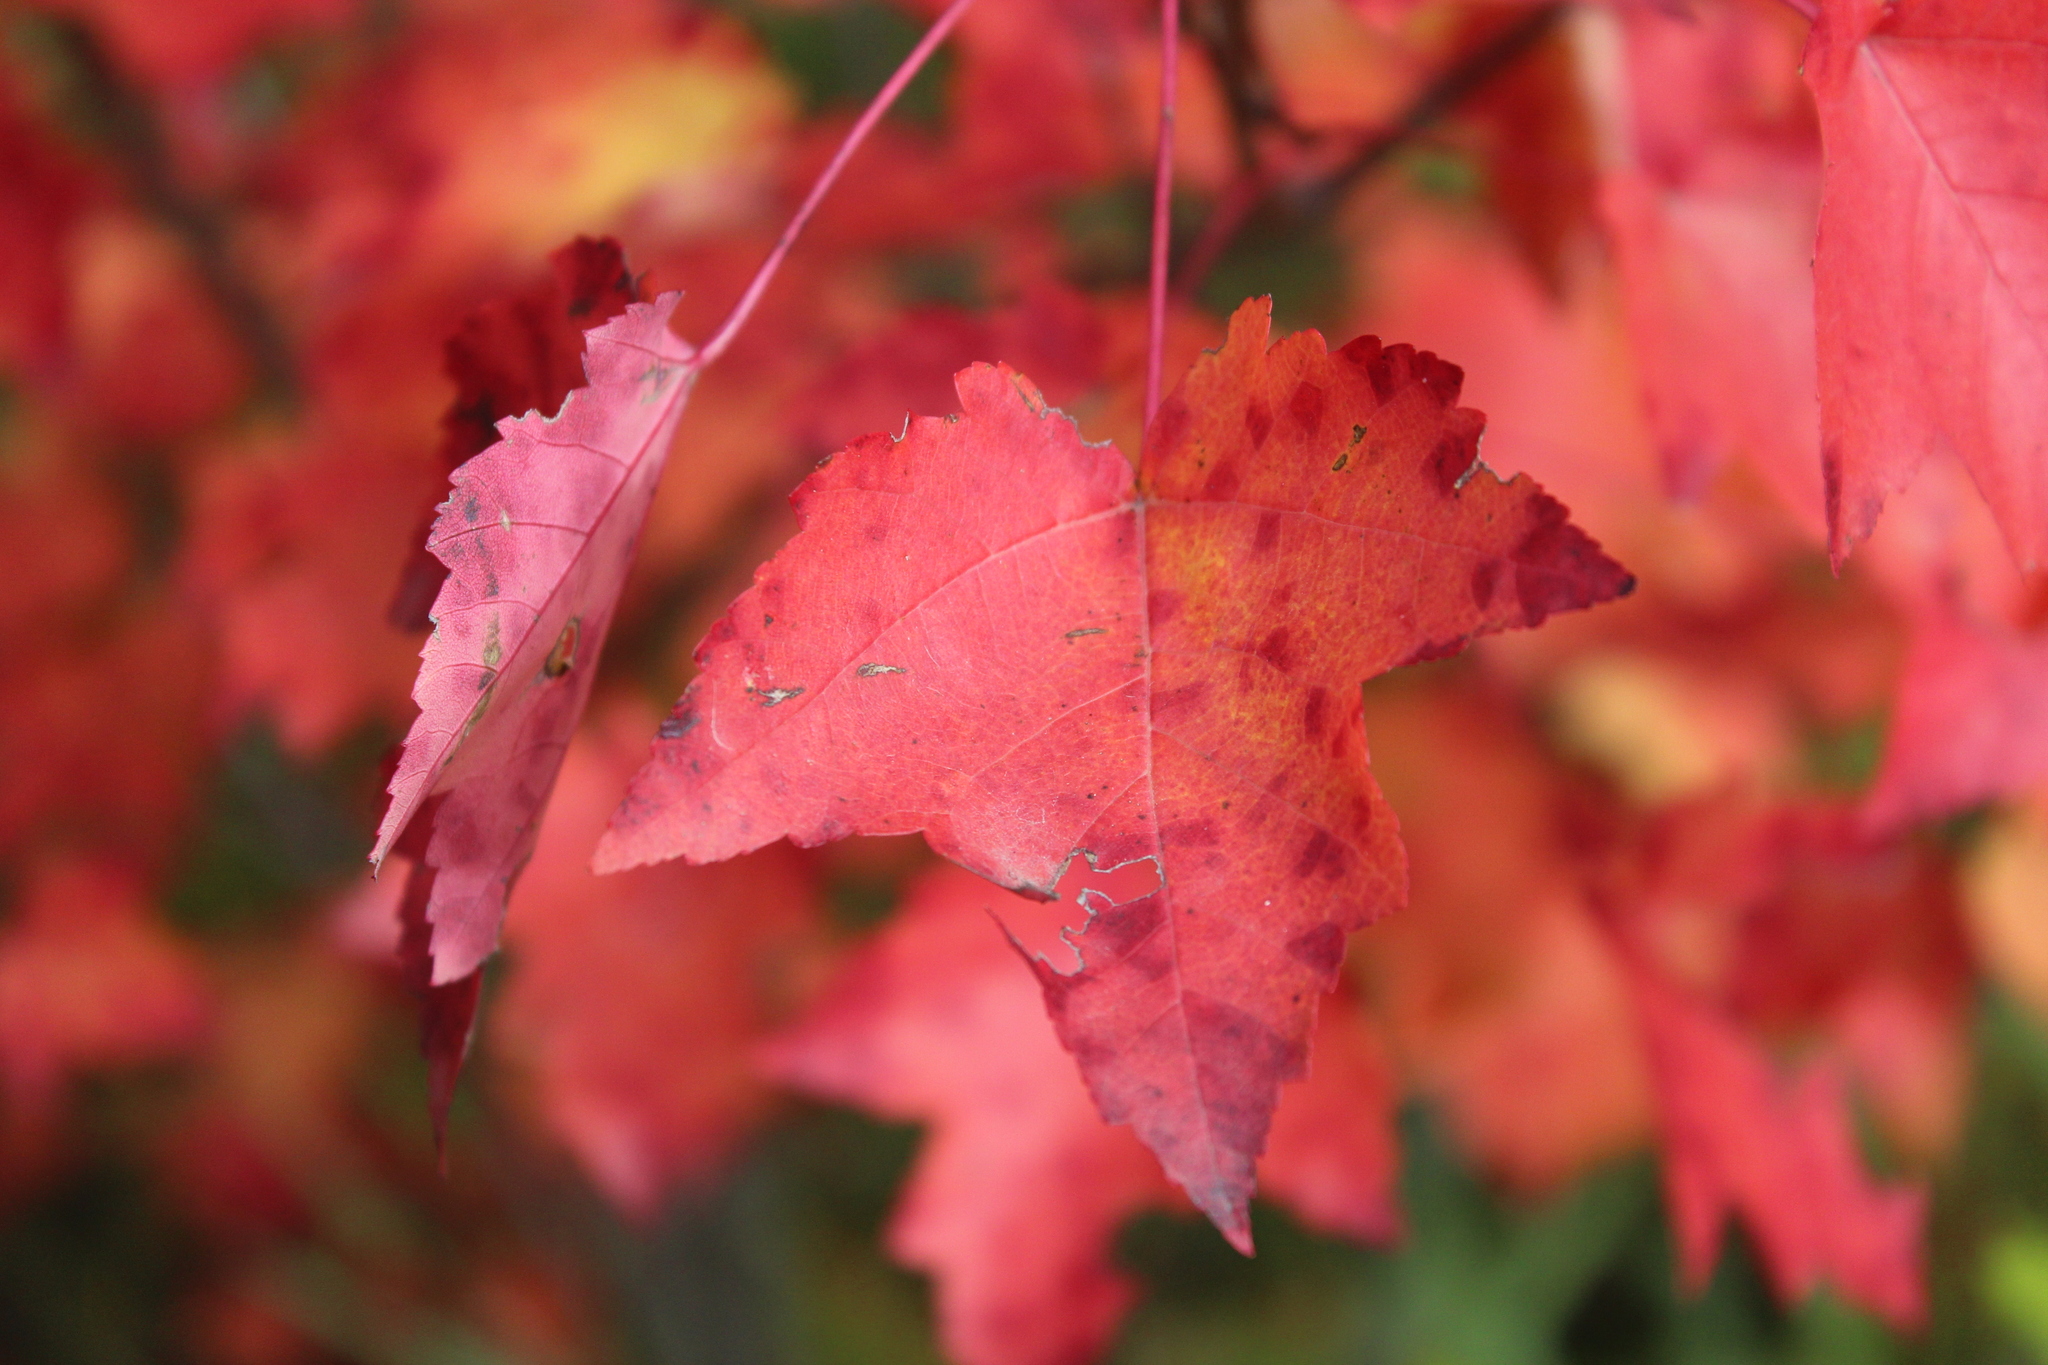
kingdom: Plantae
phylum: Tracheophyta
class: Magnoliopsida
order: Sapindales
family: Sapindaceae
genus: Acer
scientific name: Acer rubrum
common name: Red maple
